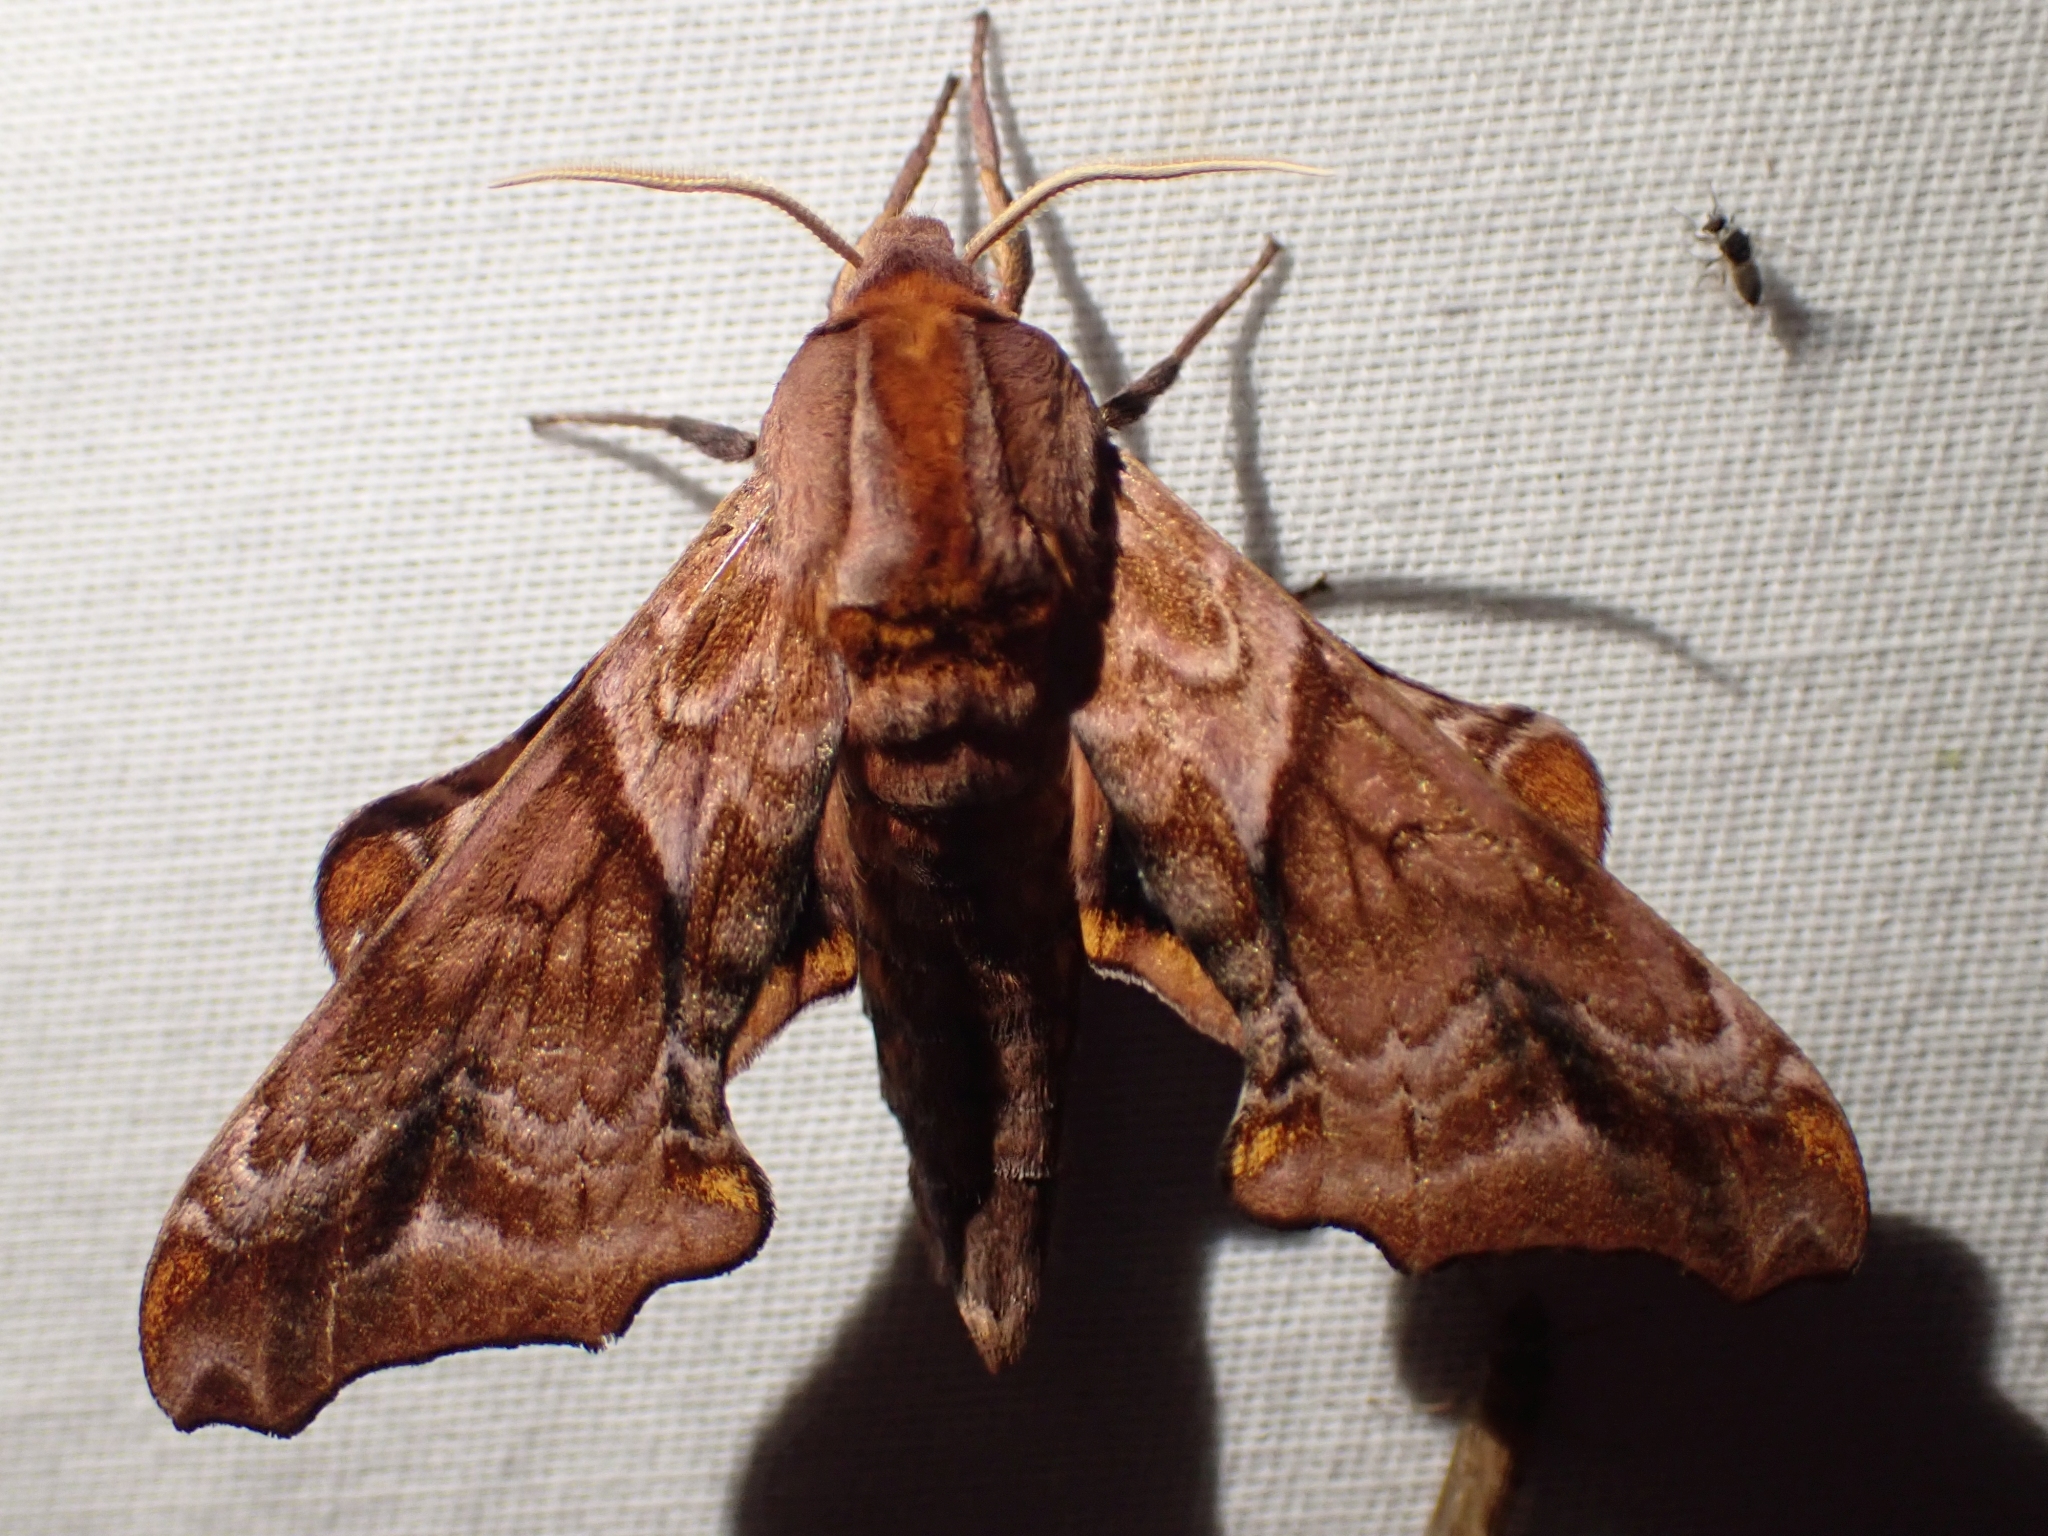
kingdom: Animalia
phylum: Arthropoda
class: Insecta
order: Lepidoptera
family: Sphingidae
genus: Paonias
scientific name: Paonias myops
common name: Small-eyed sphinx
